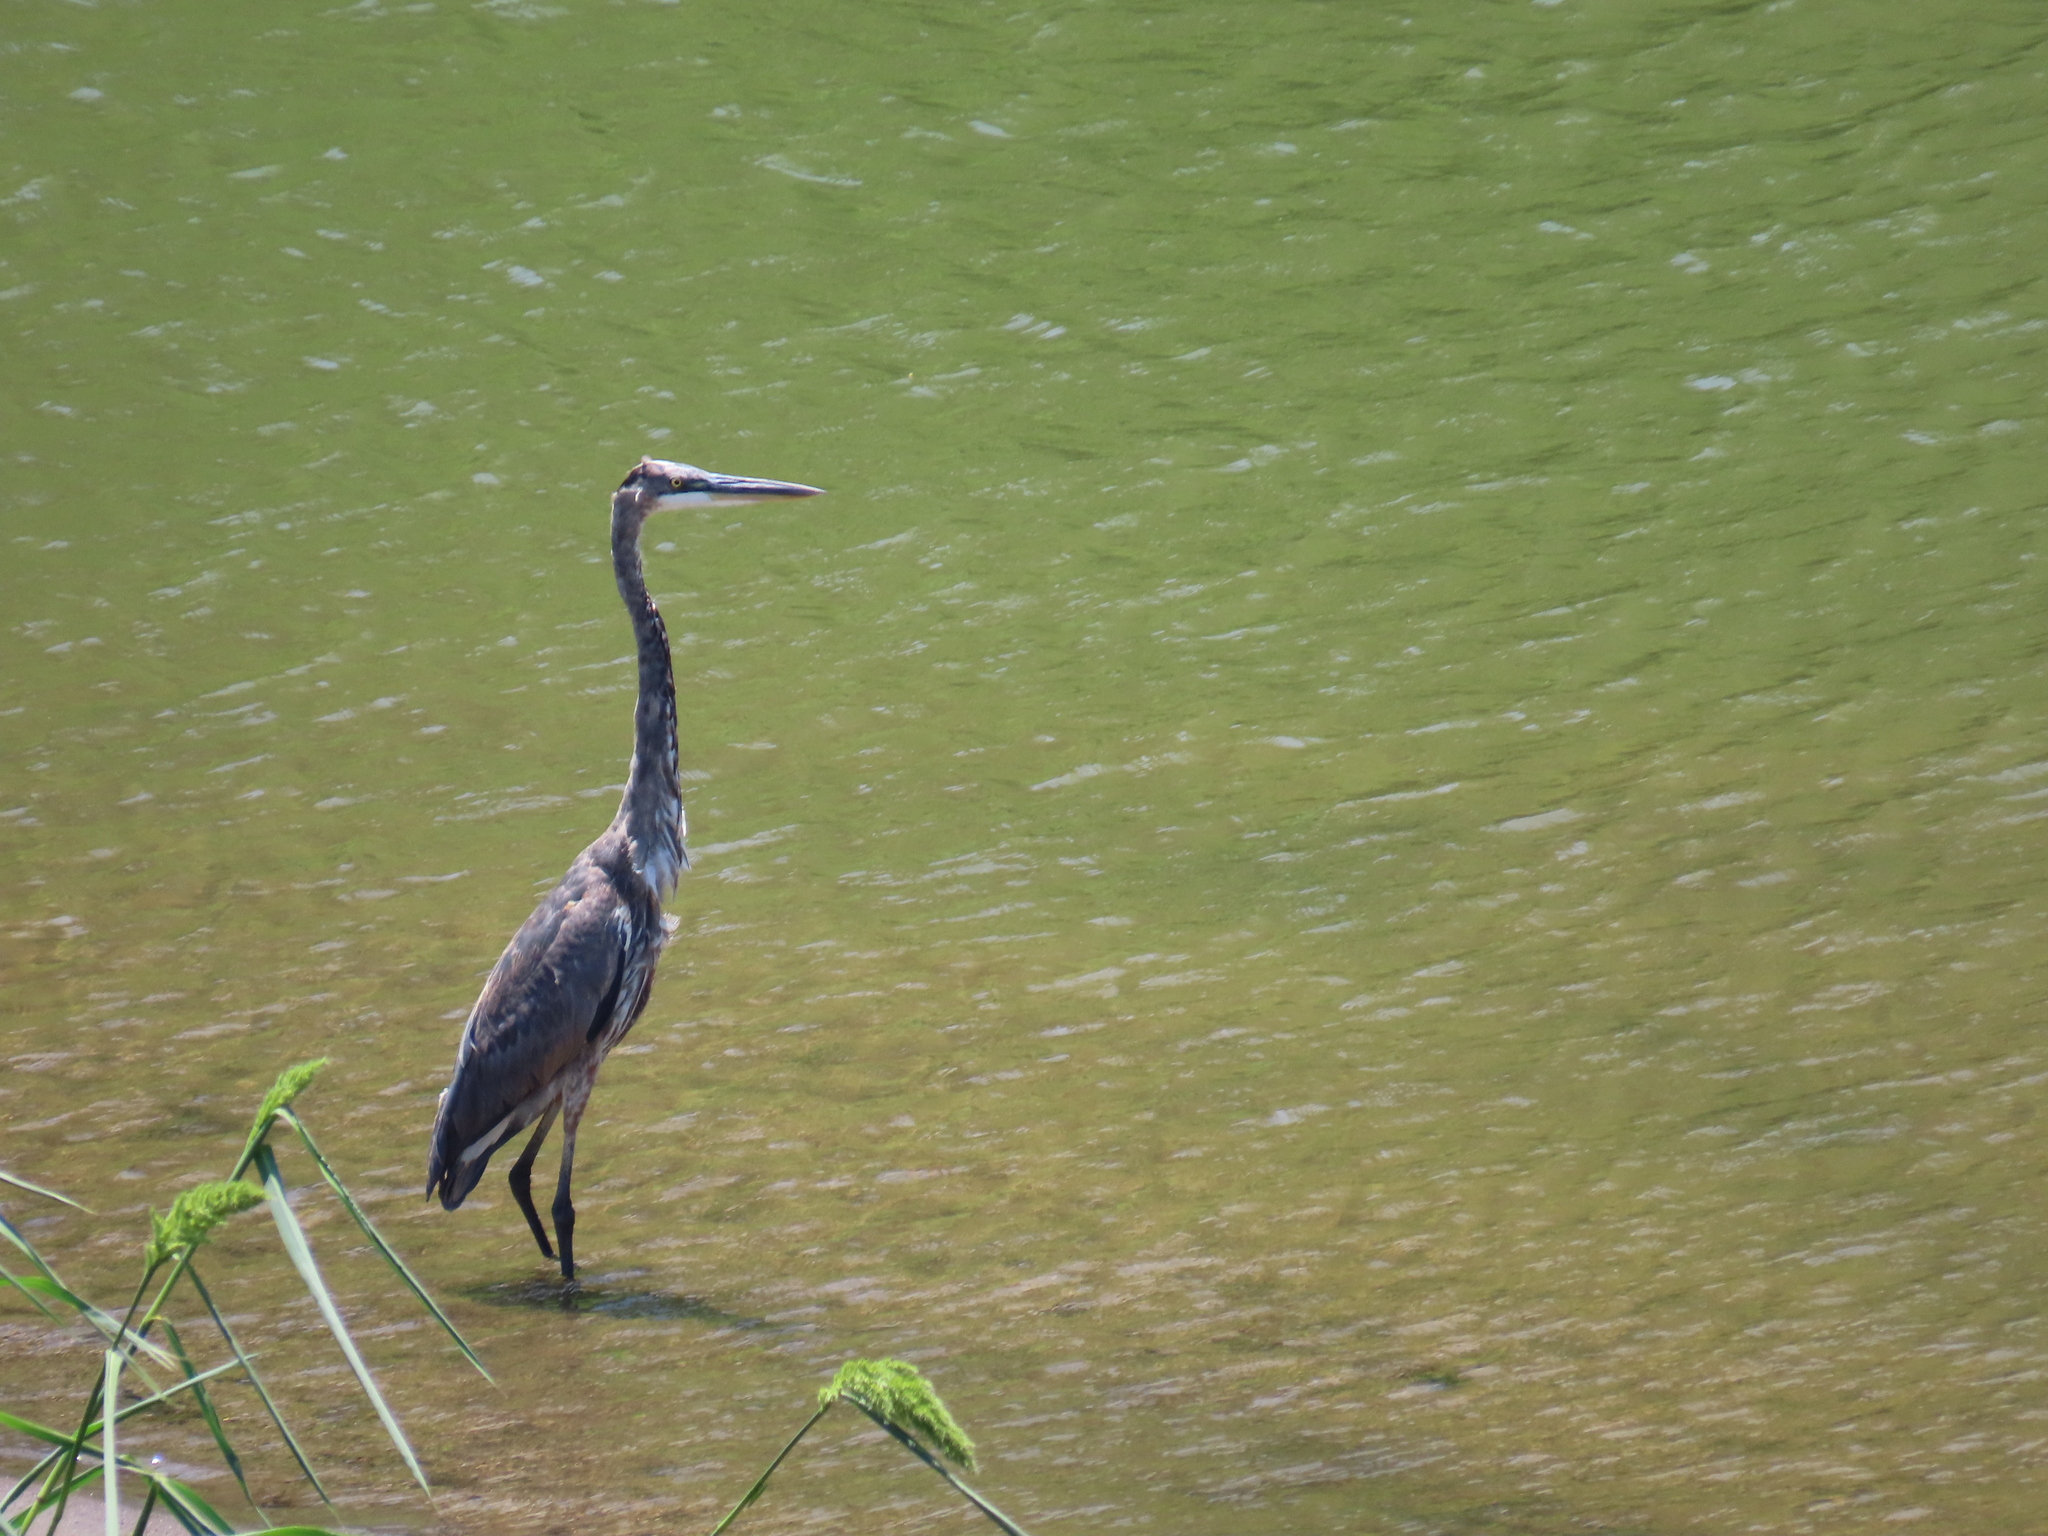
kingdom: Animalia
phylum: Chordata
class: Aves
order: Pelecaniformes
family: Ardeidae
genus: Ardea
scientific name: Ardea herodias
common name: Great blue heron
